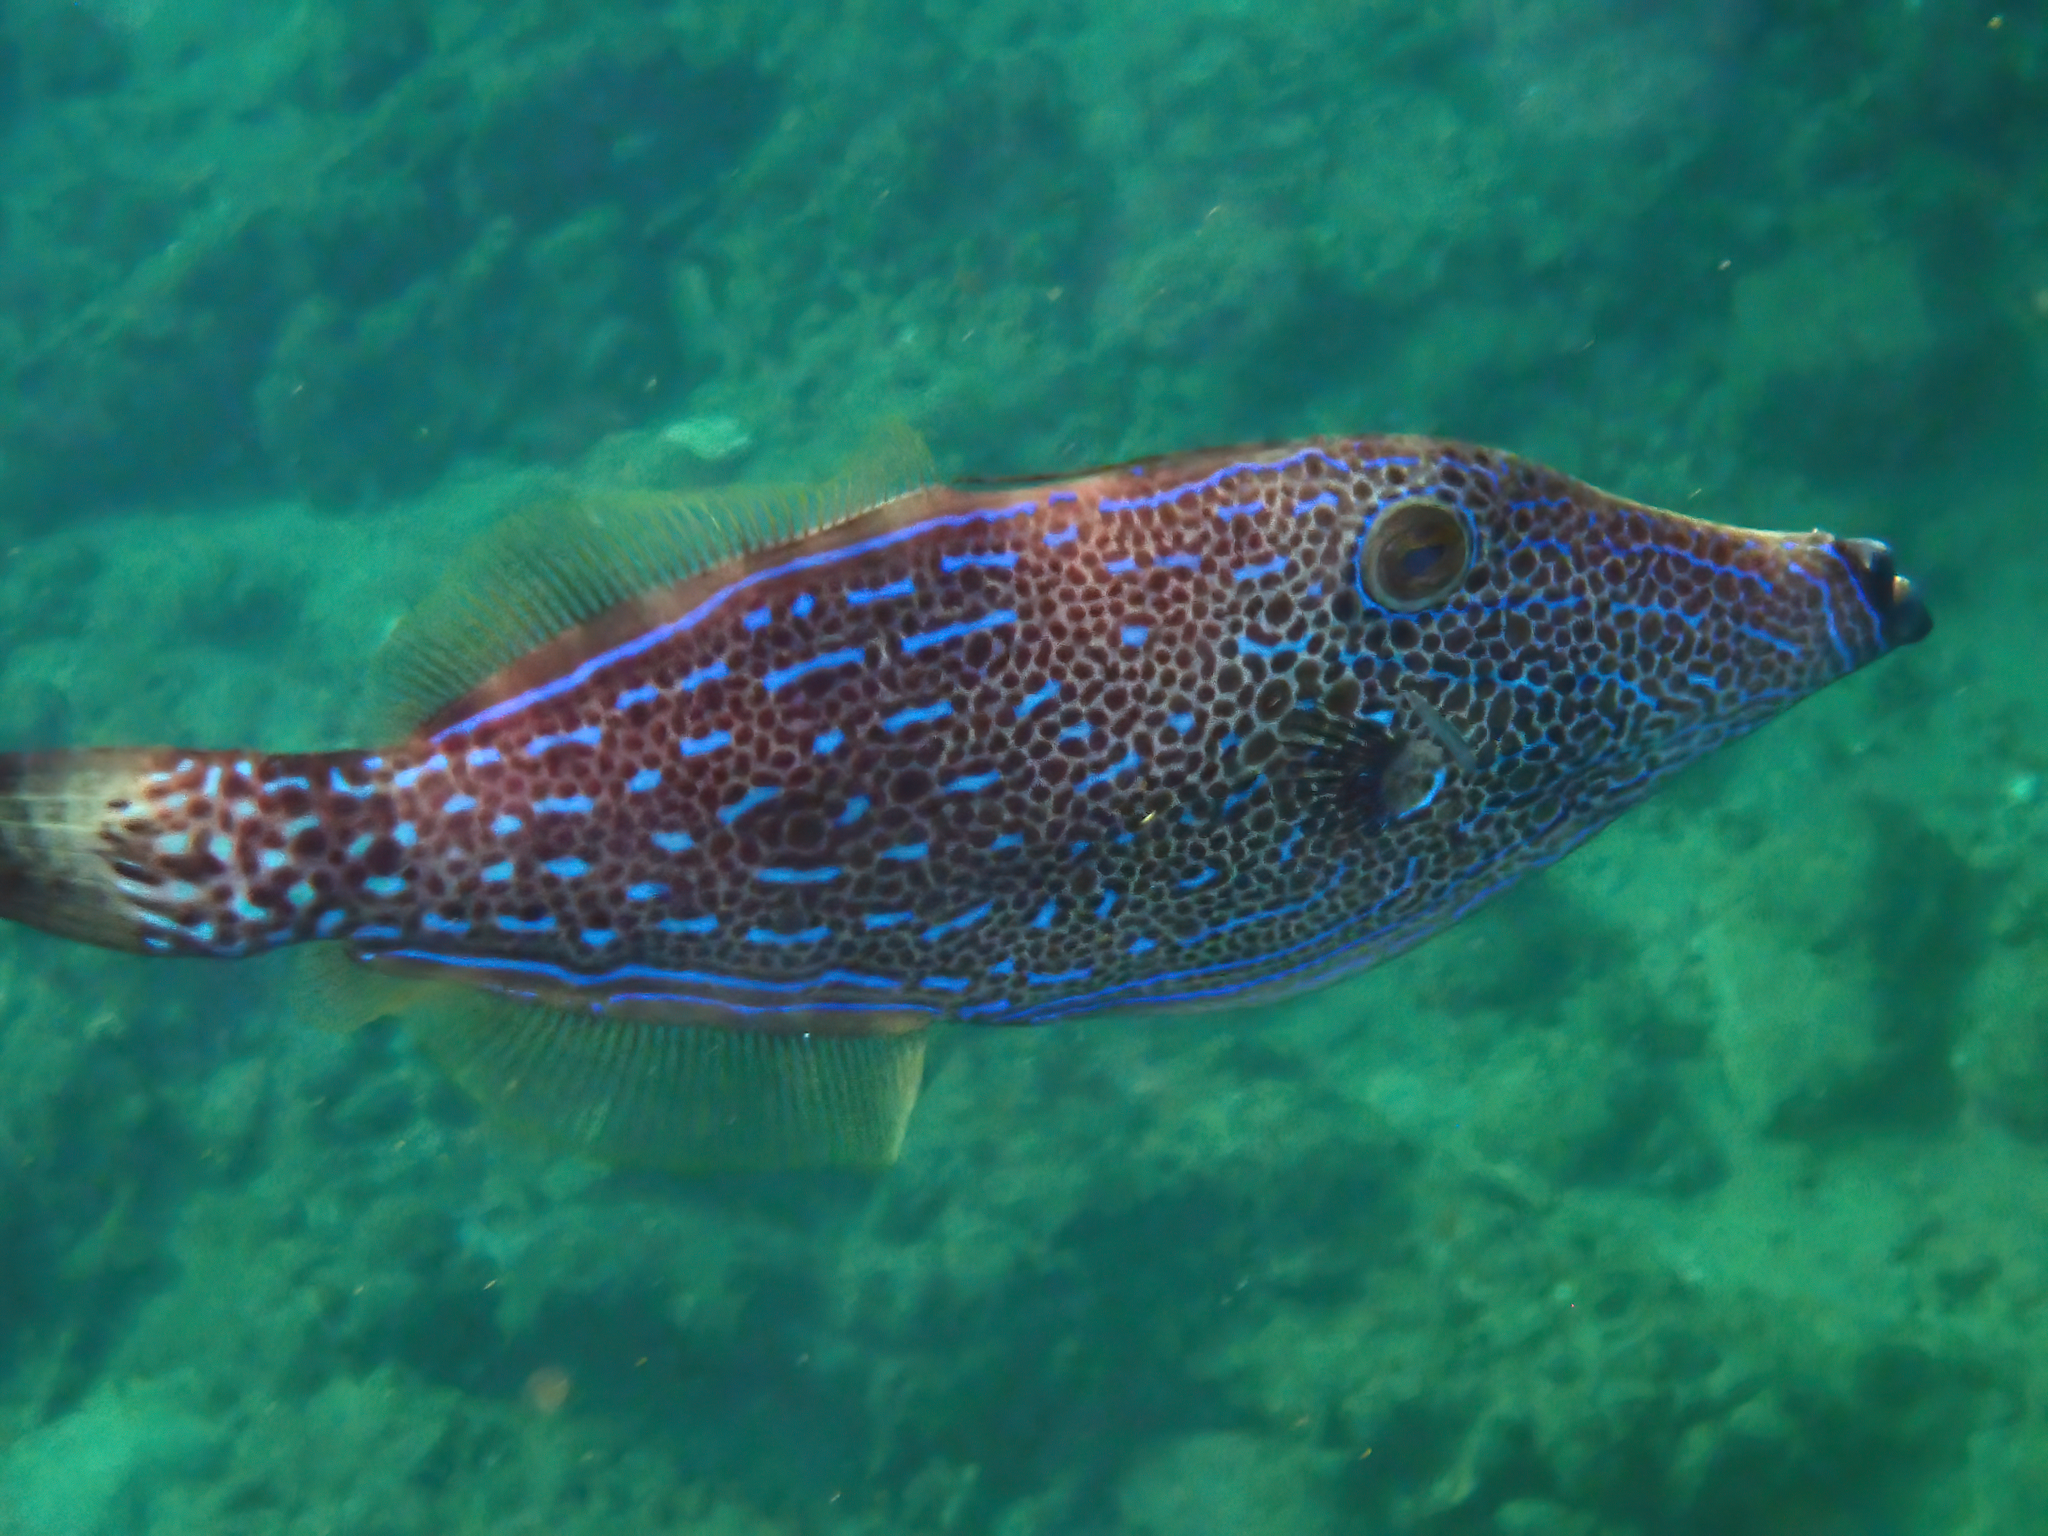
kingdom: Animalia
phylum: Chordata
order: Tetraodontiformes
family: Monacanthidae
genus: Aluterus
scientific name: Aluterus scriptus
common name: Scribbled leatherjacket filefish
